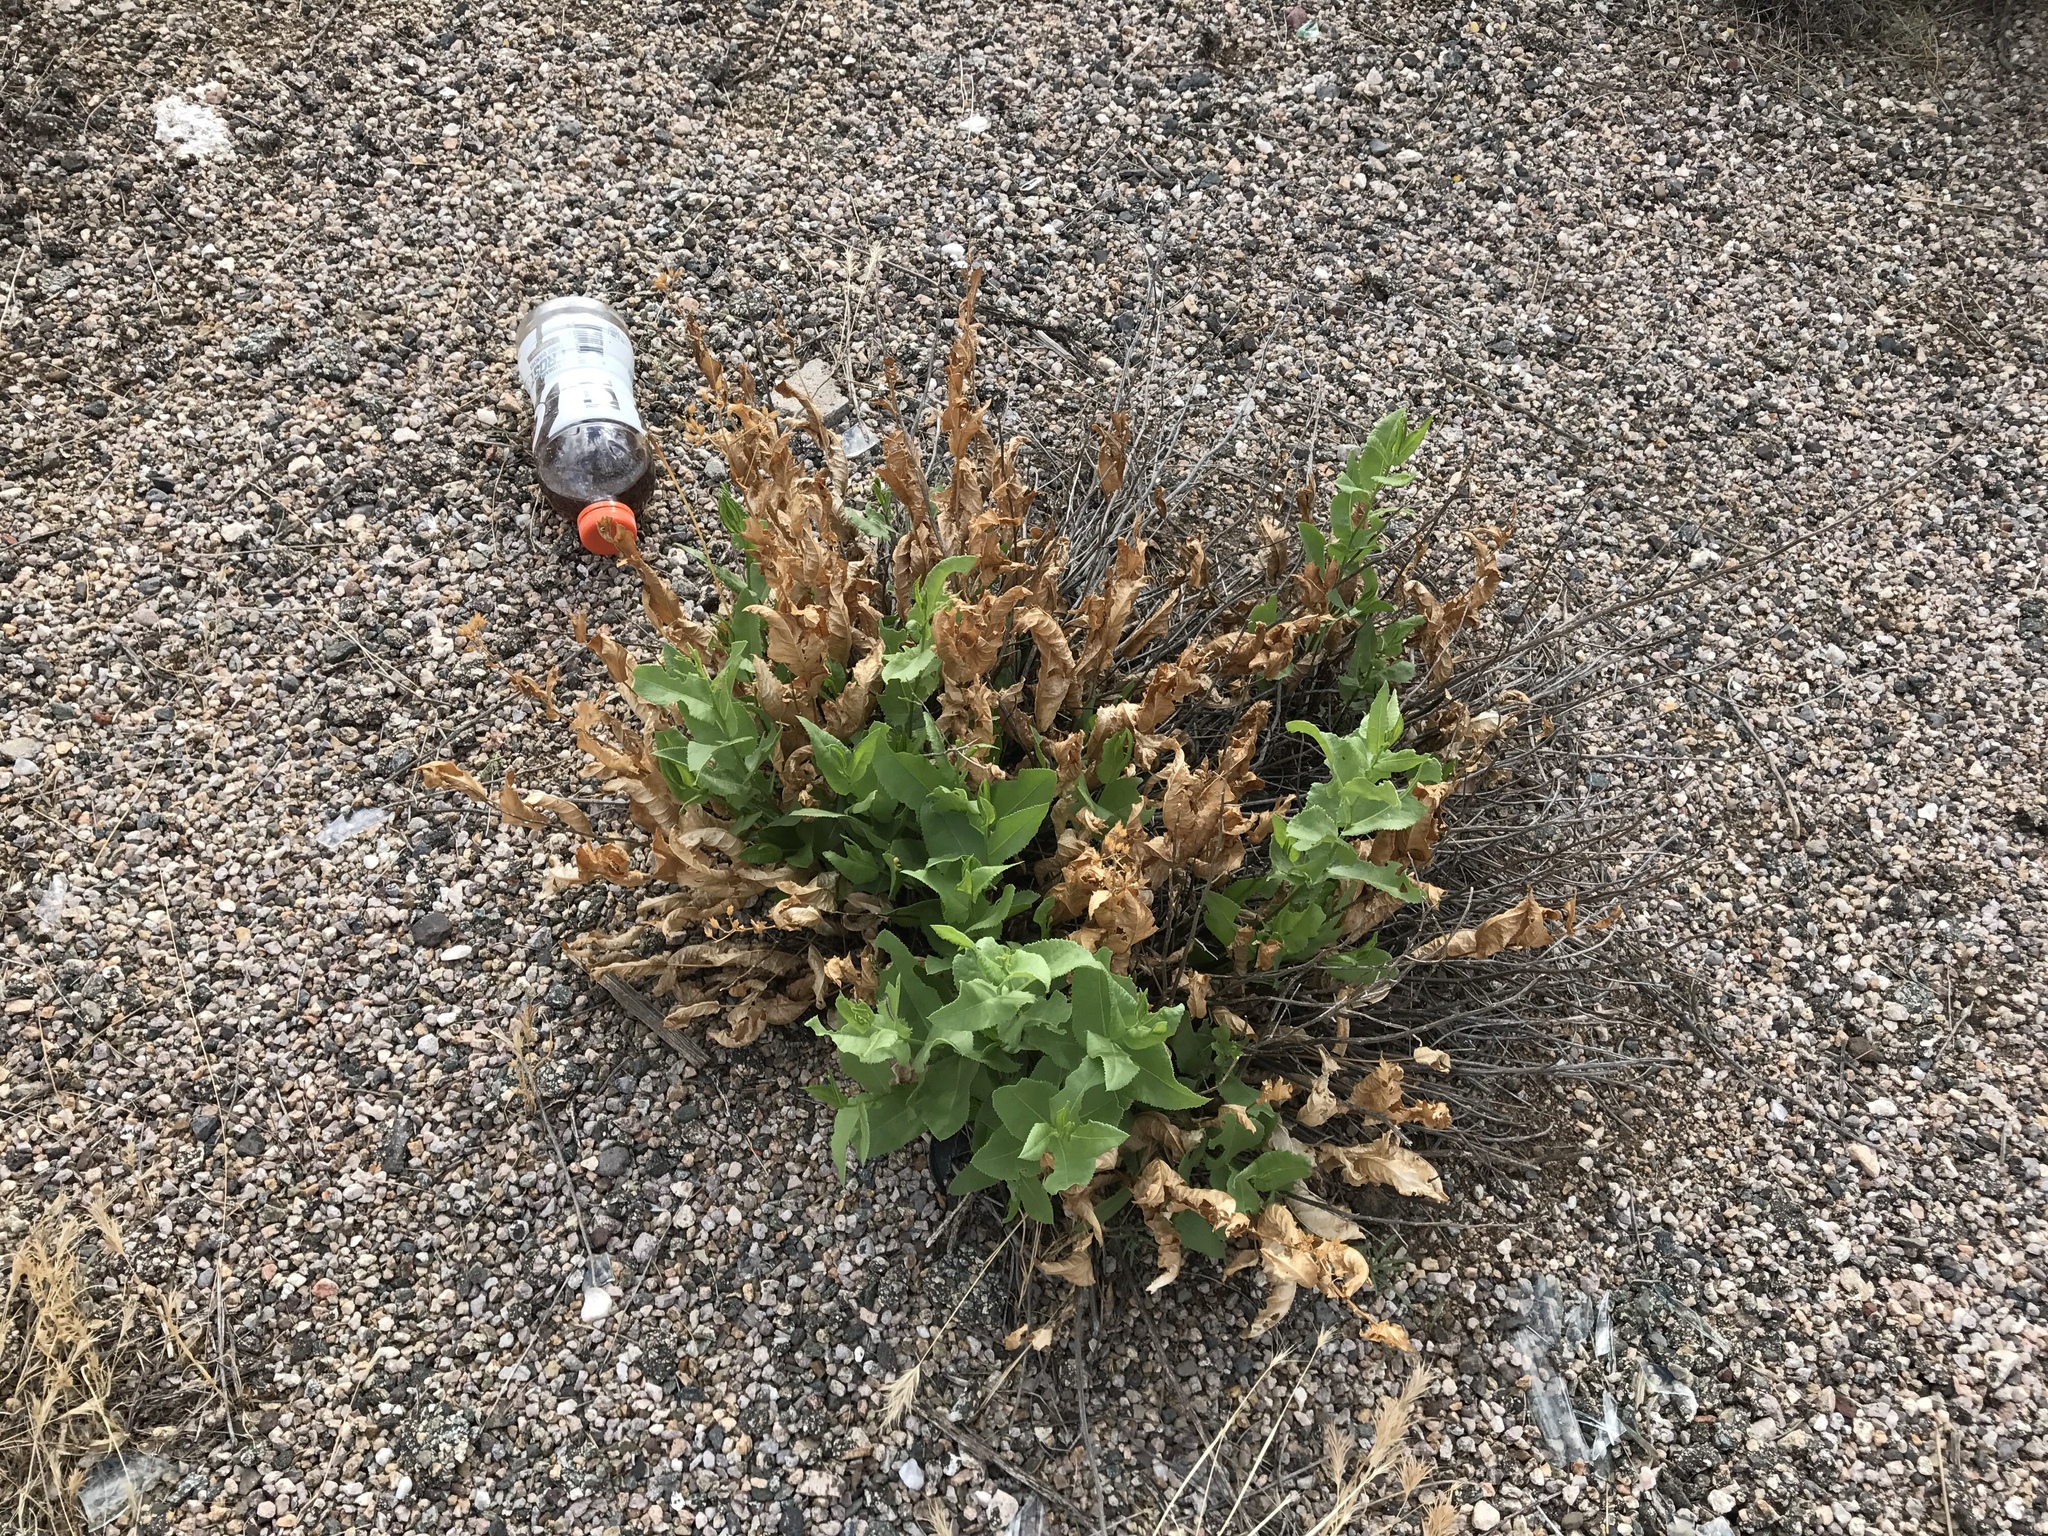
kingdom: Plantae
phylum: Tracheophyta
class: Magnoliopsida
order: Asterales
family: Asteraceae
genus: Acourtia
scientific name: Acourtia wrightii
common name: Brownfoot
